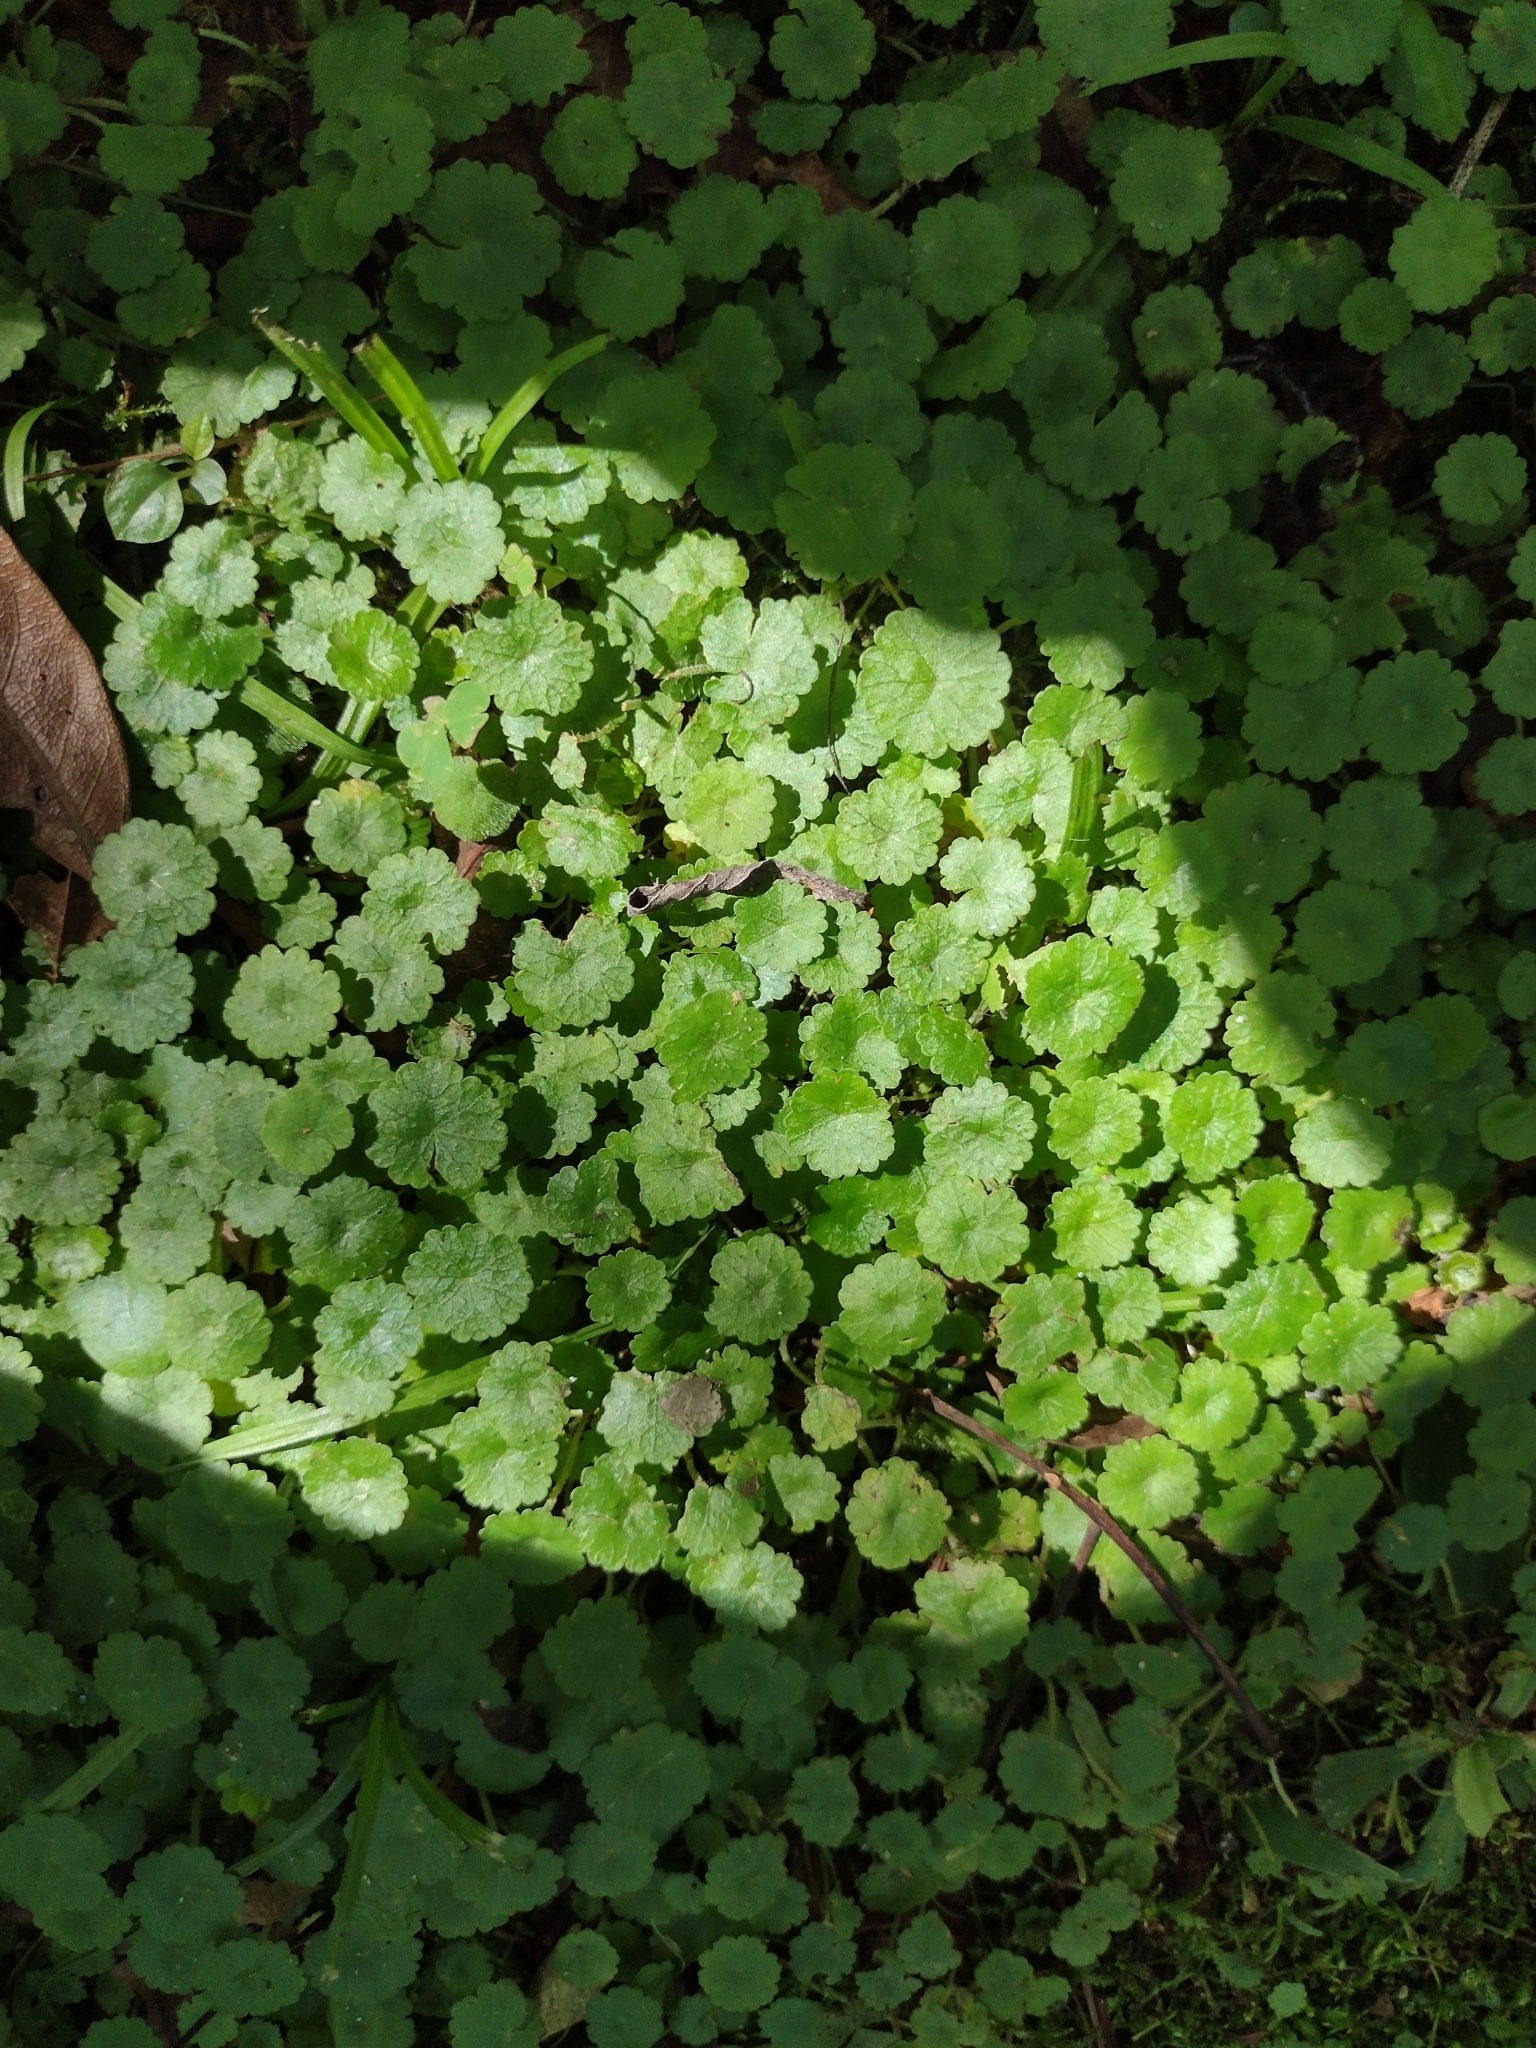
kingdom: Plantae
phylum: Tracheophyta
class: Magnoliopsida
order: Apiales
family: Araliaceae
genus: Hydrocotyle
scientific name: Hydrocotyle pusilla
